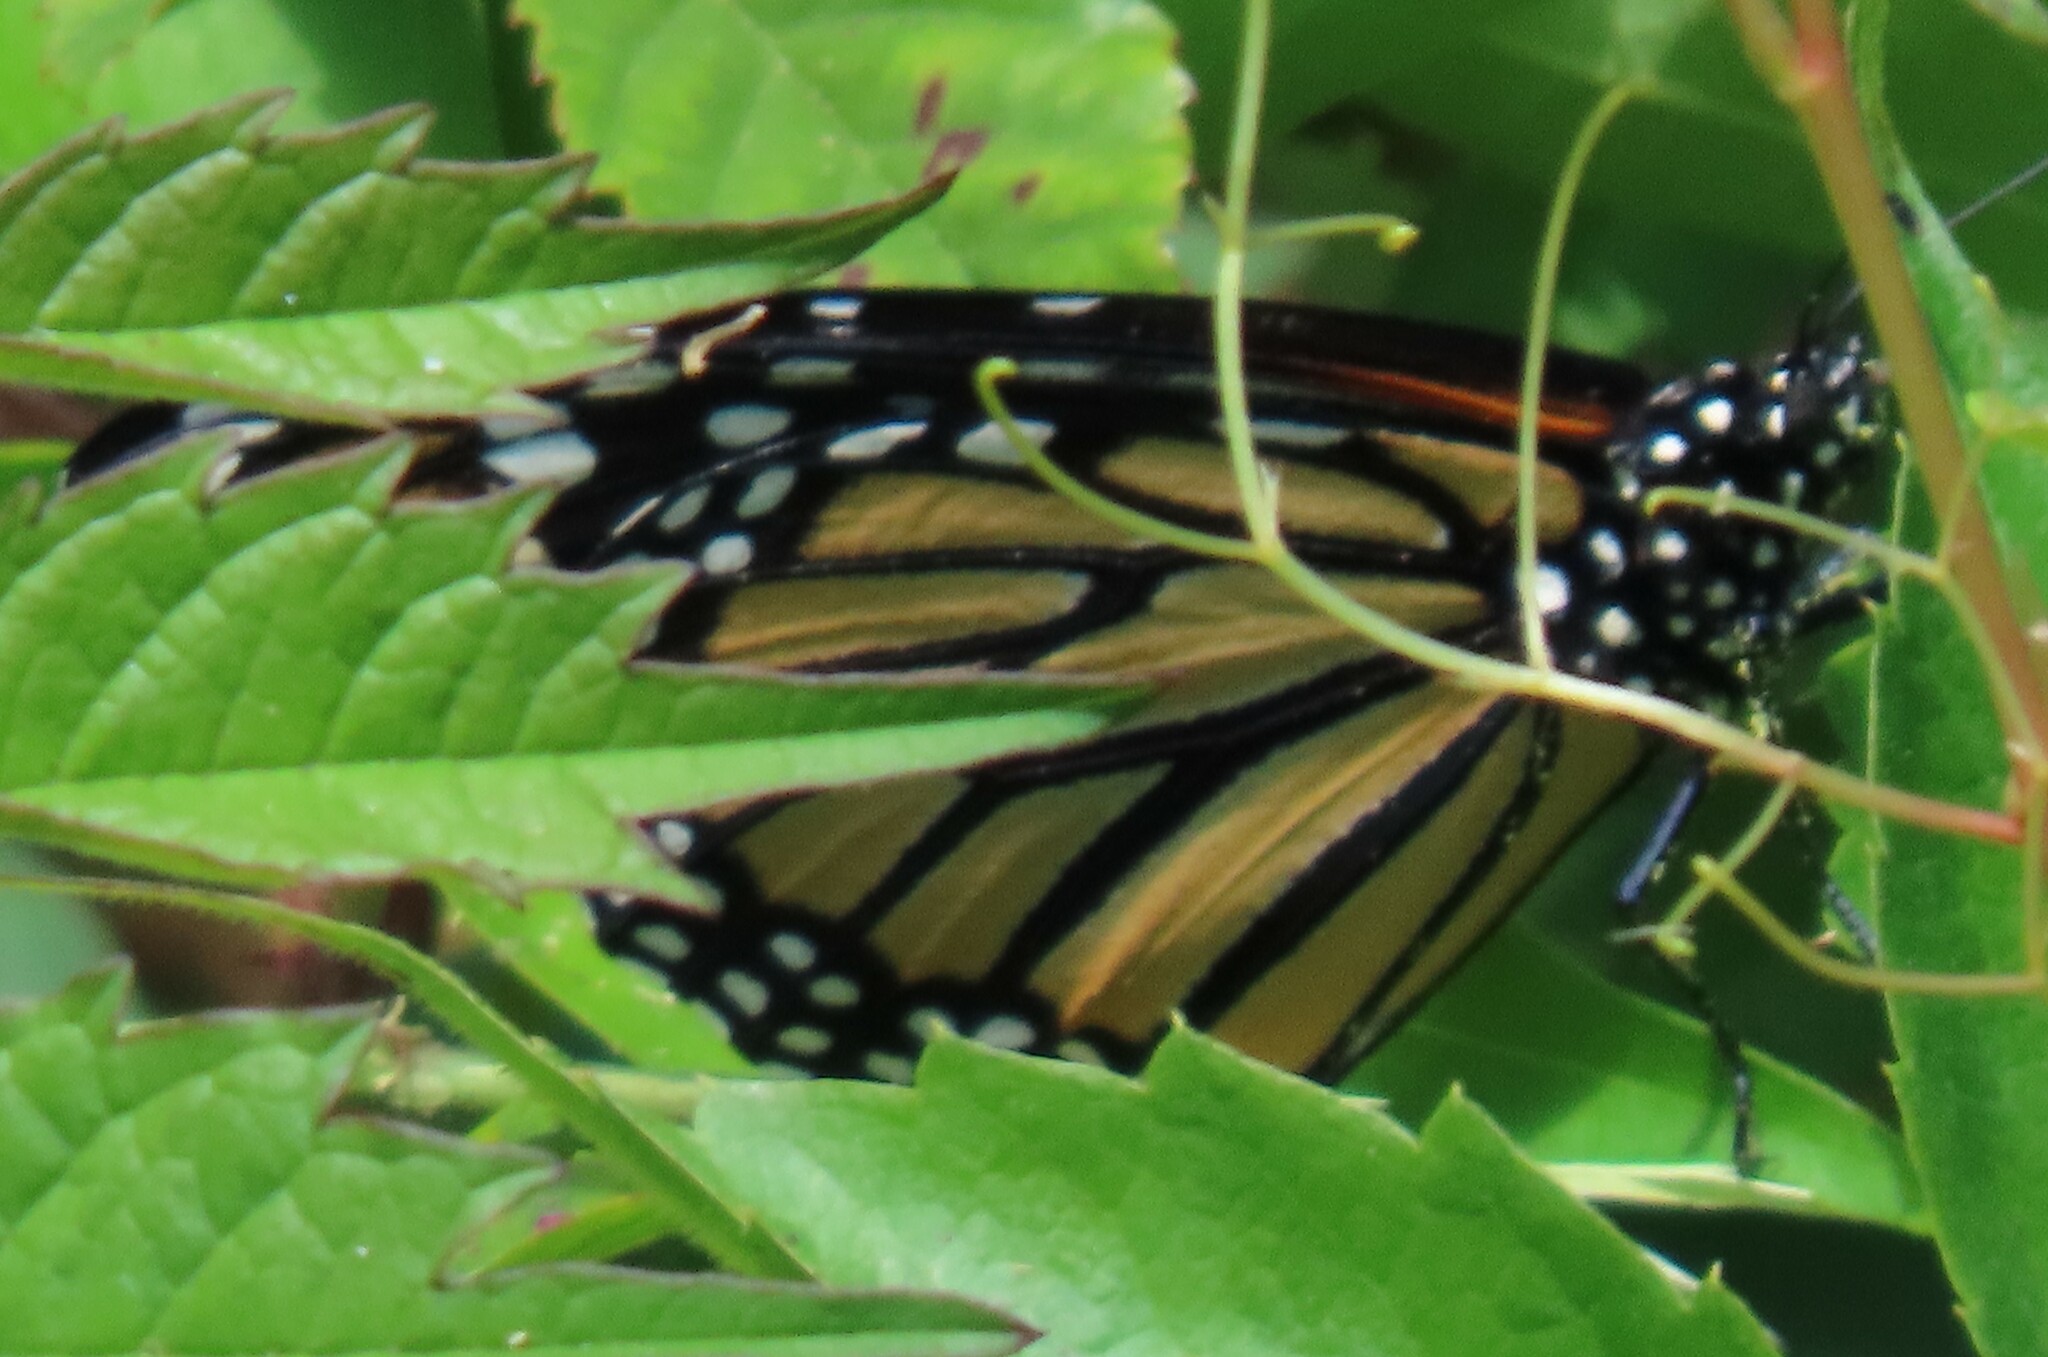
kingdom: Animalia
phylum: Arthropoda
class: Insecta
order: Lepidoptera
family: Nymphalidae
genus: Danaus
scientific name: Danaus plexippus
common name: Monarch
